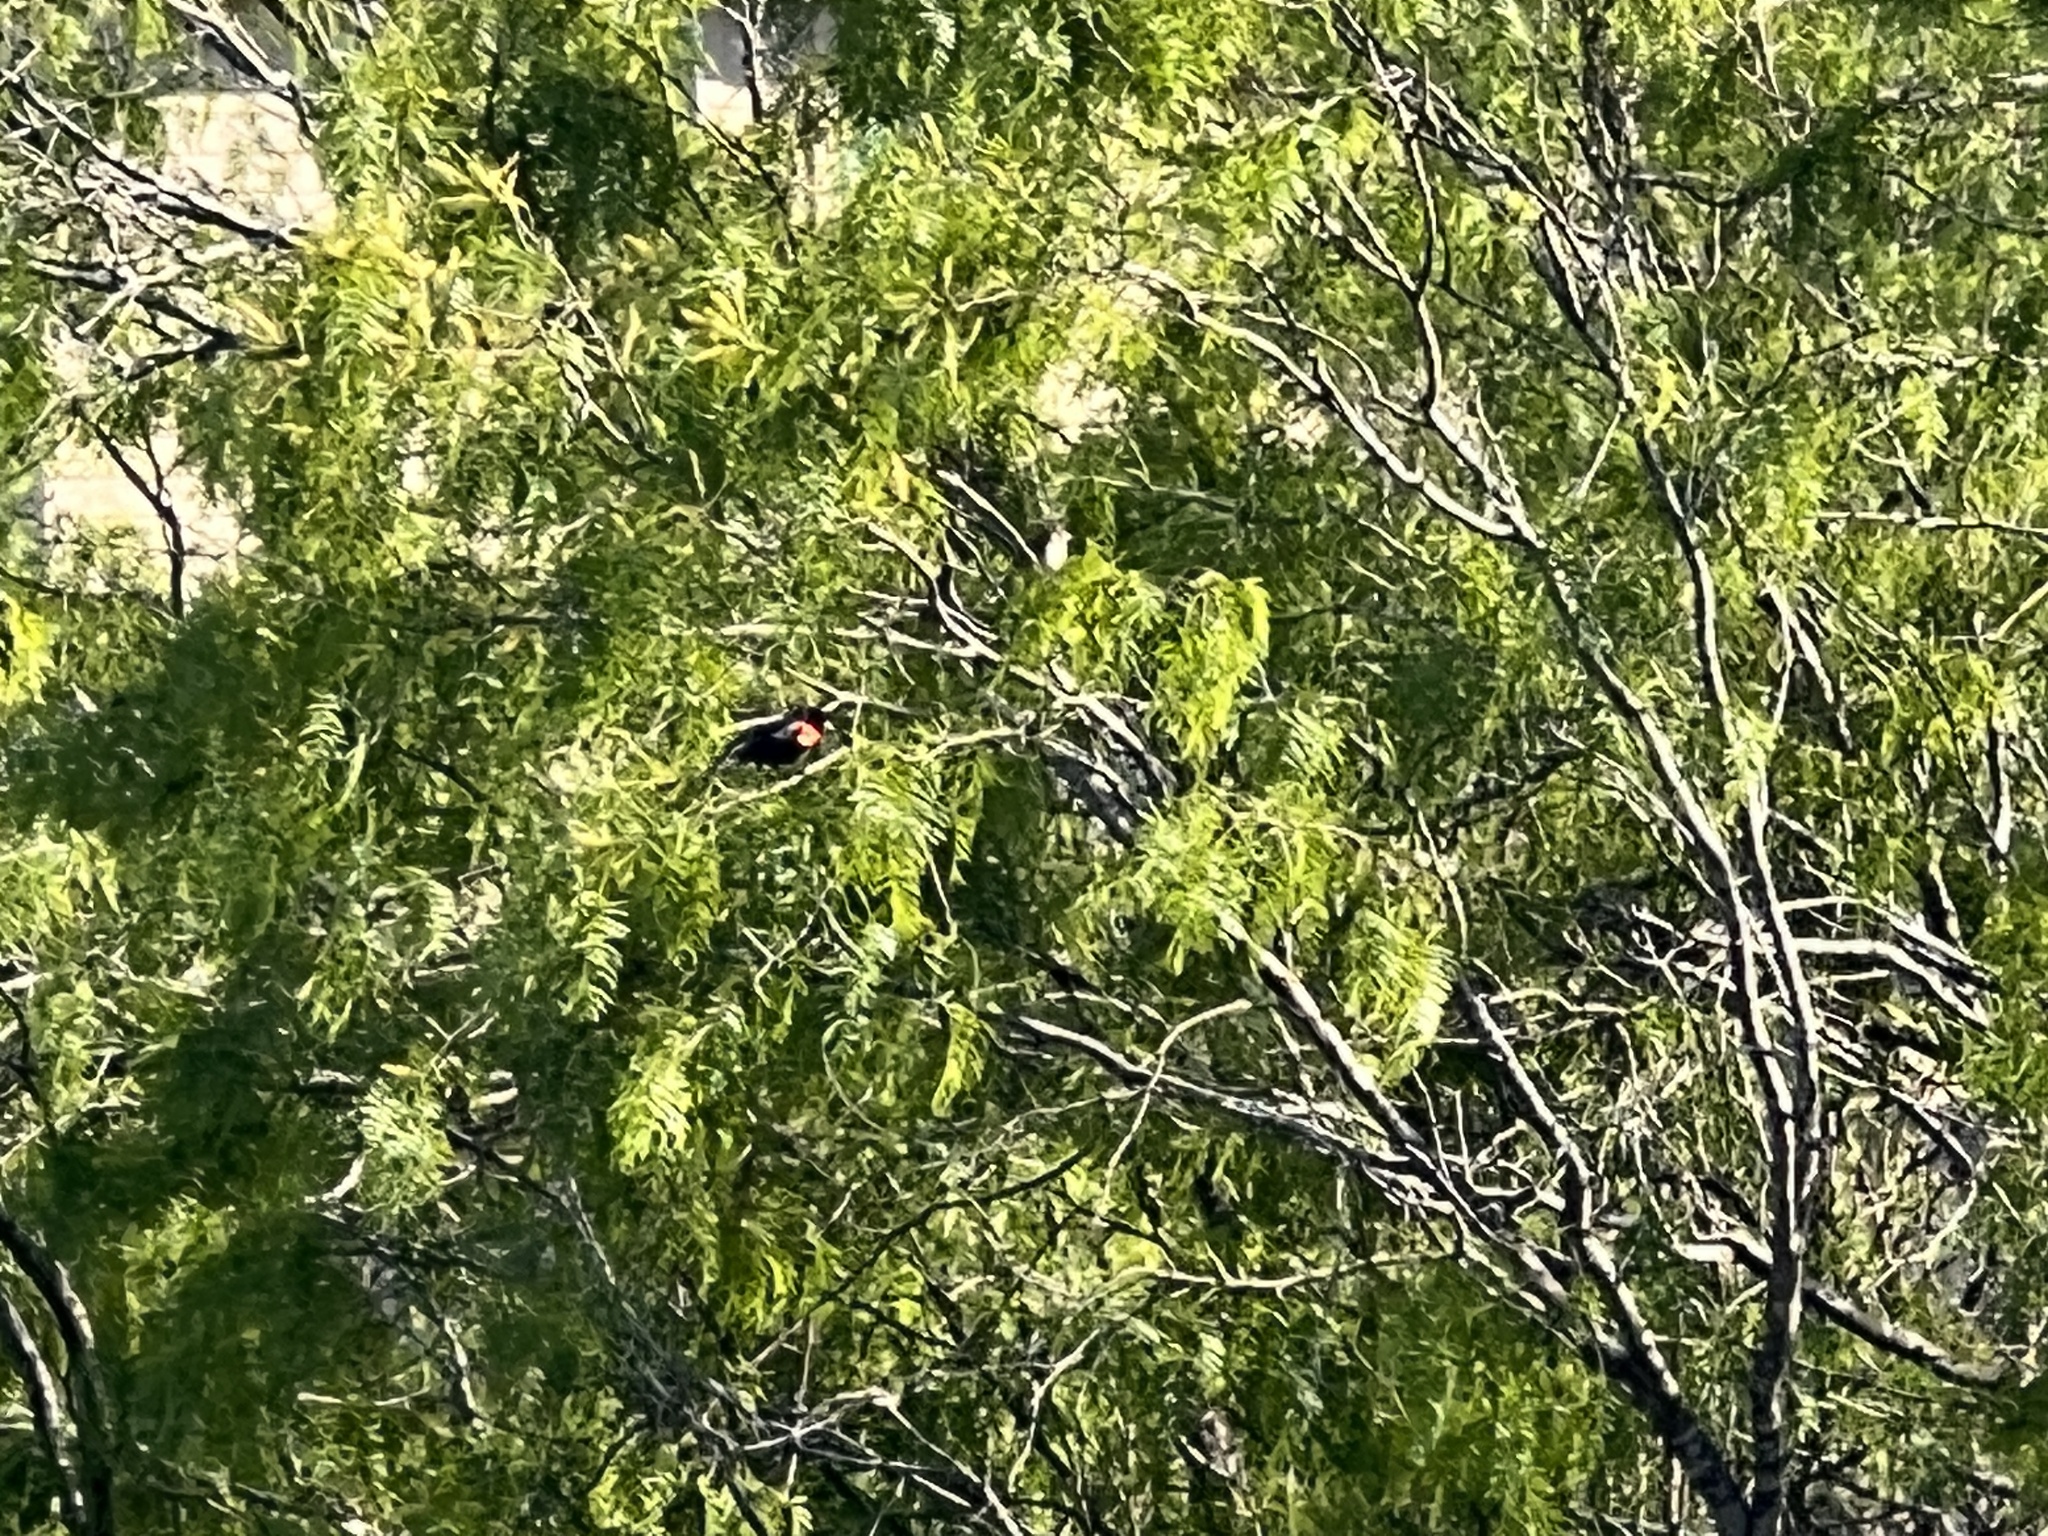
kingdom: Animalia
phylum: Chordata
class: Aves
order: Passeriformes
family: Icteridae
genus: Agelaius
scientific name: Agelaius phoeniceus
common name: Red-winged blackbird
